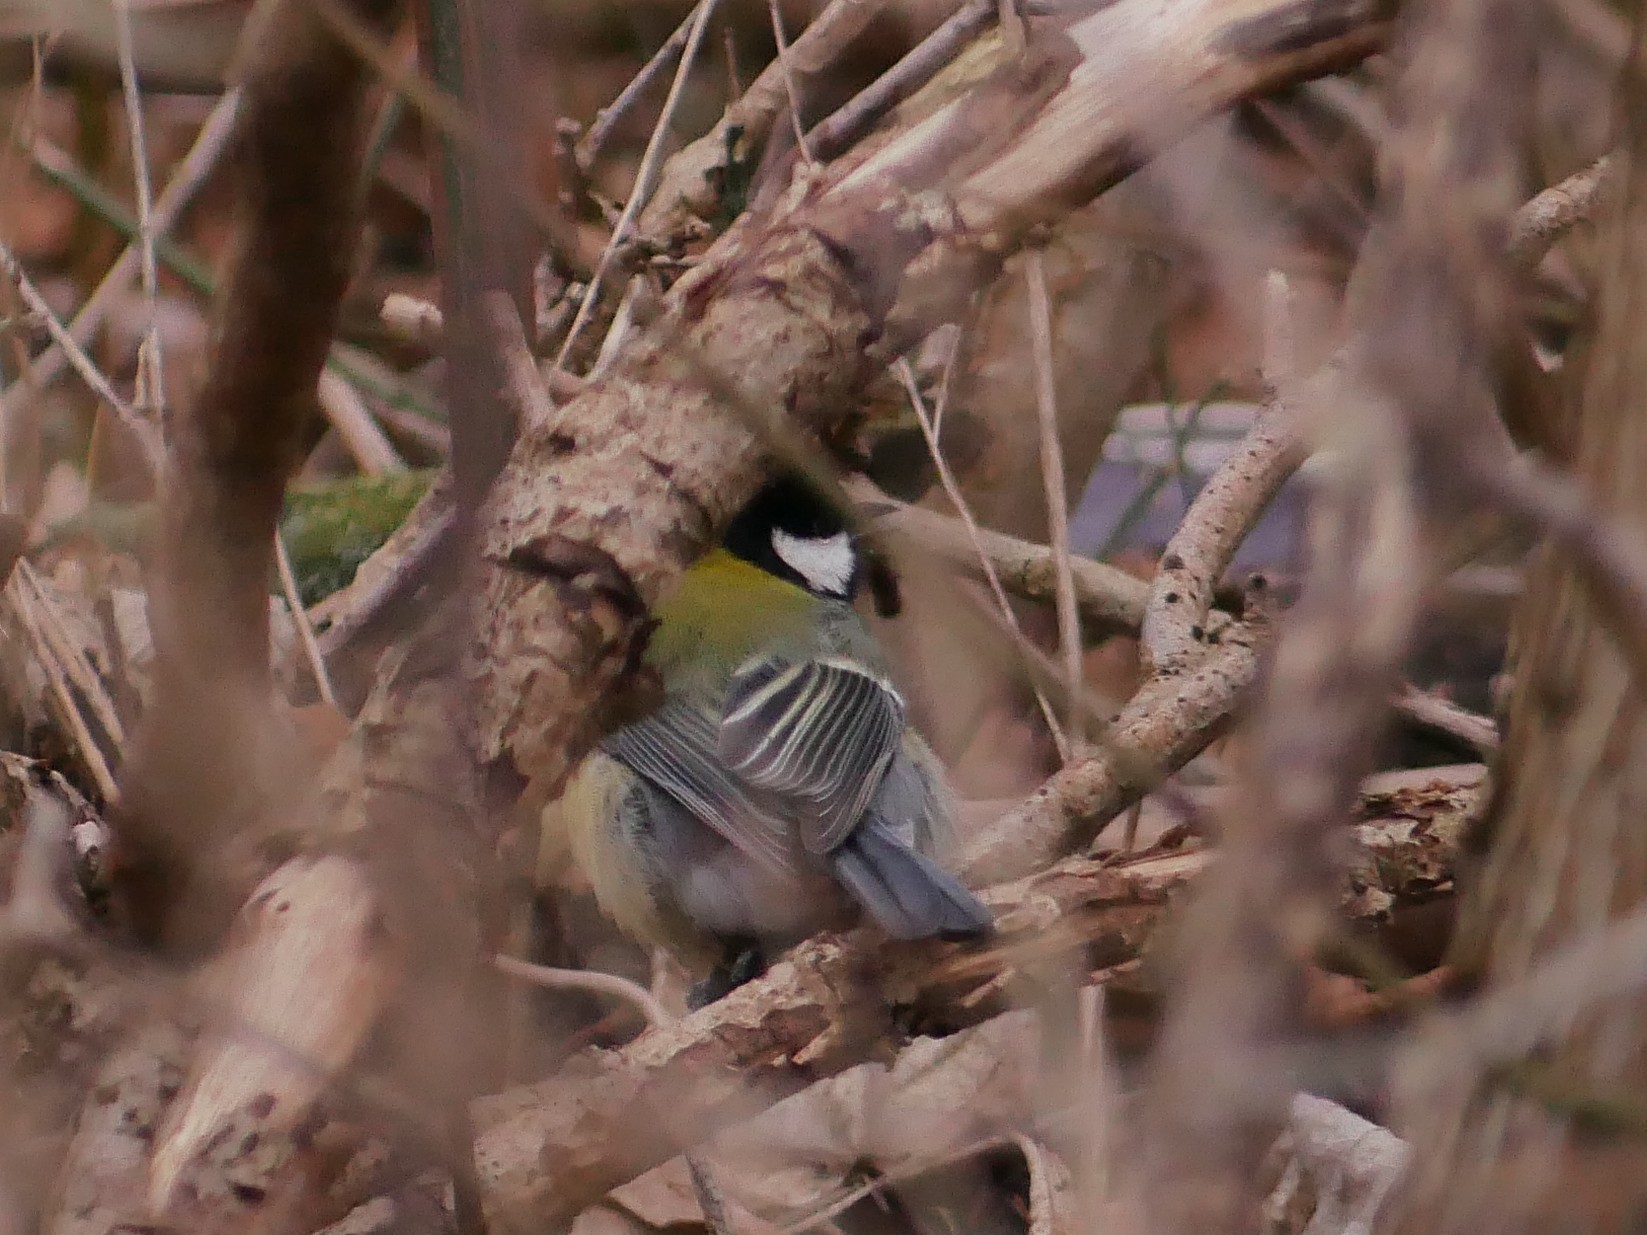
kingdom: Animalia
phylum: Chordata
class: Aves
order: Passeriformes
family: Paridae
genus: Parus
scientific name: Parus major
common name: Great tit
